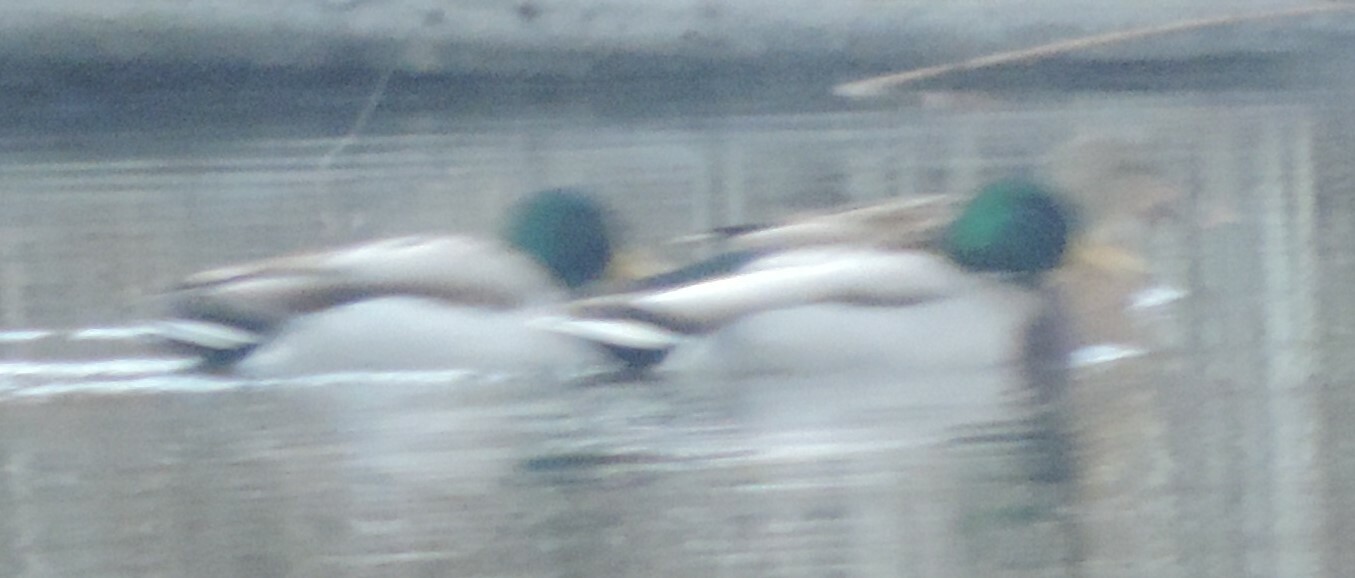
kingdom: Animalia
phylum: Chordata
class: Aves
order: Anseriformes
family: Anatidae
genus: Anas
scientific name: Anas platyrhynchos
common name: Mallard
